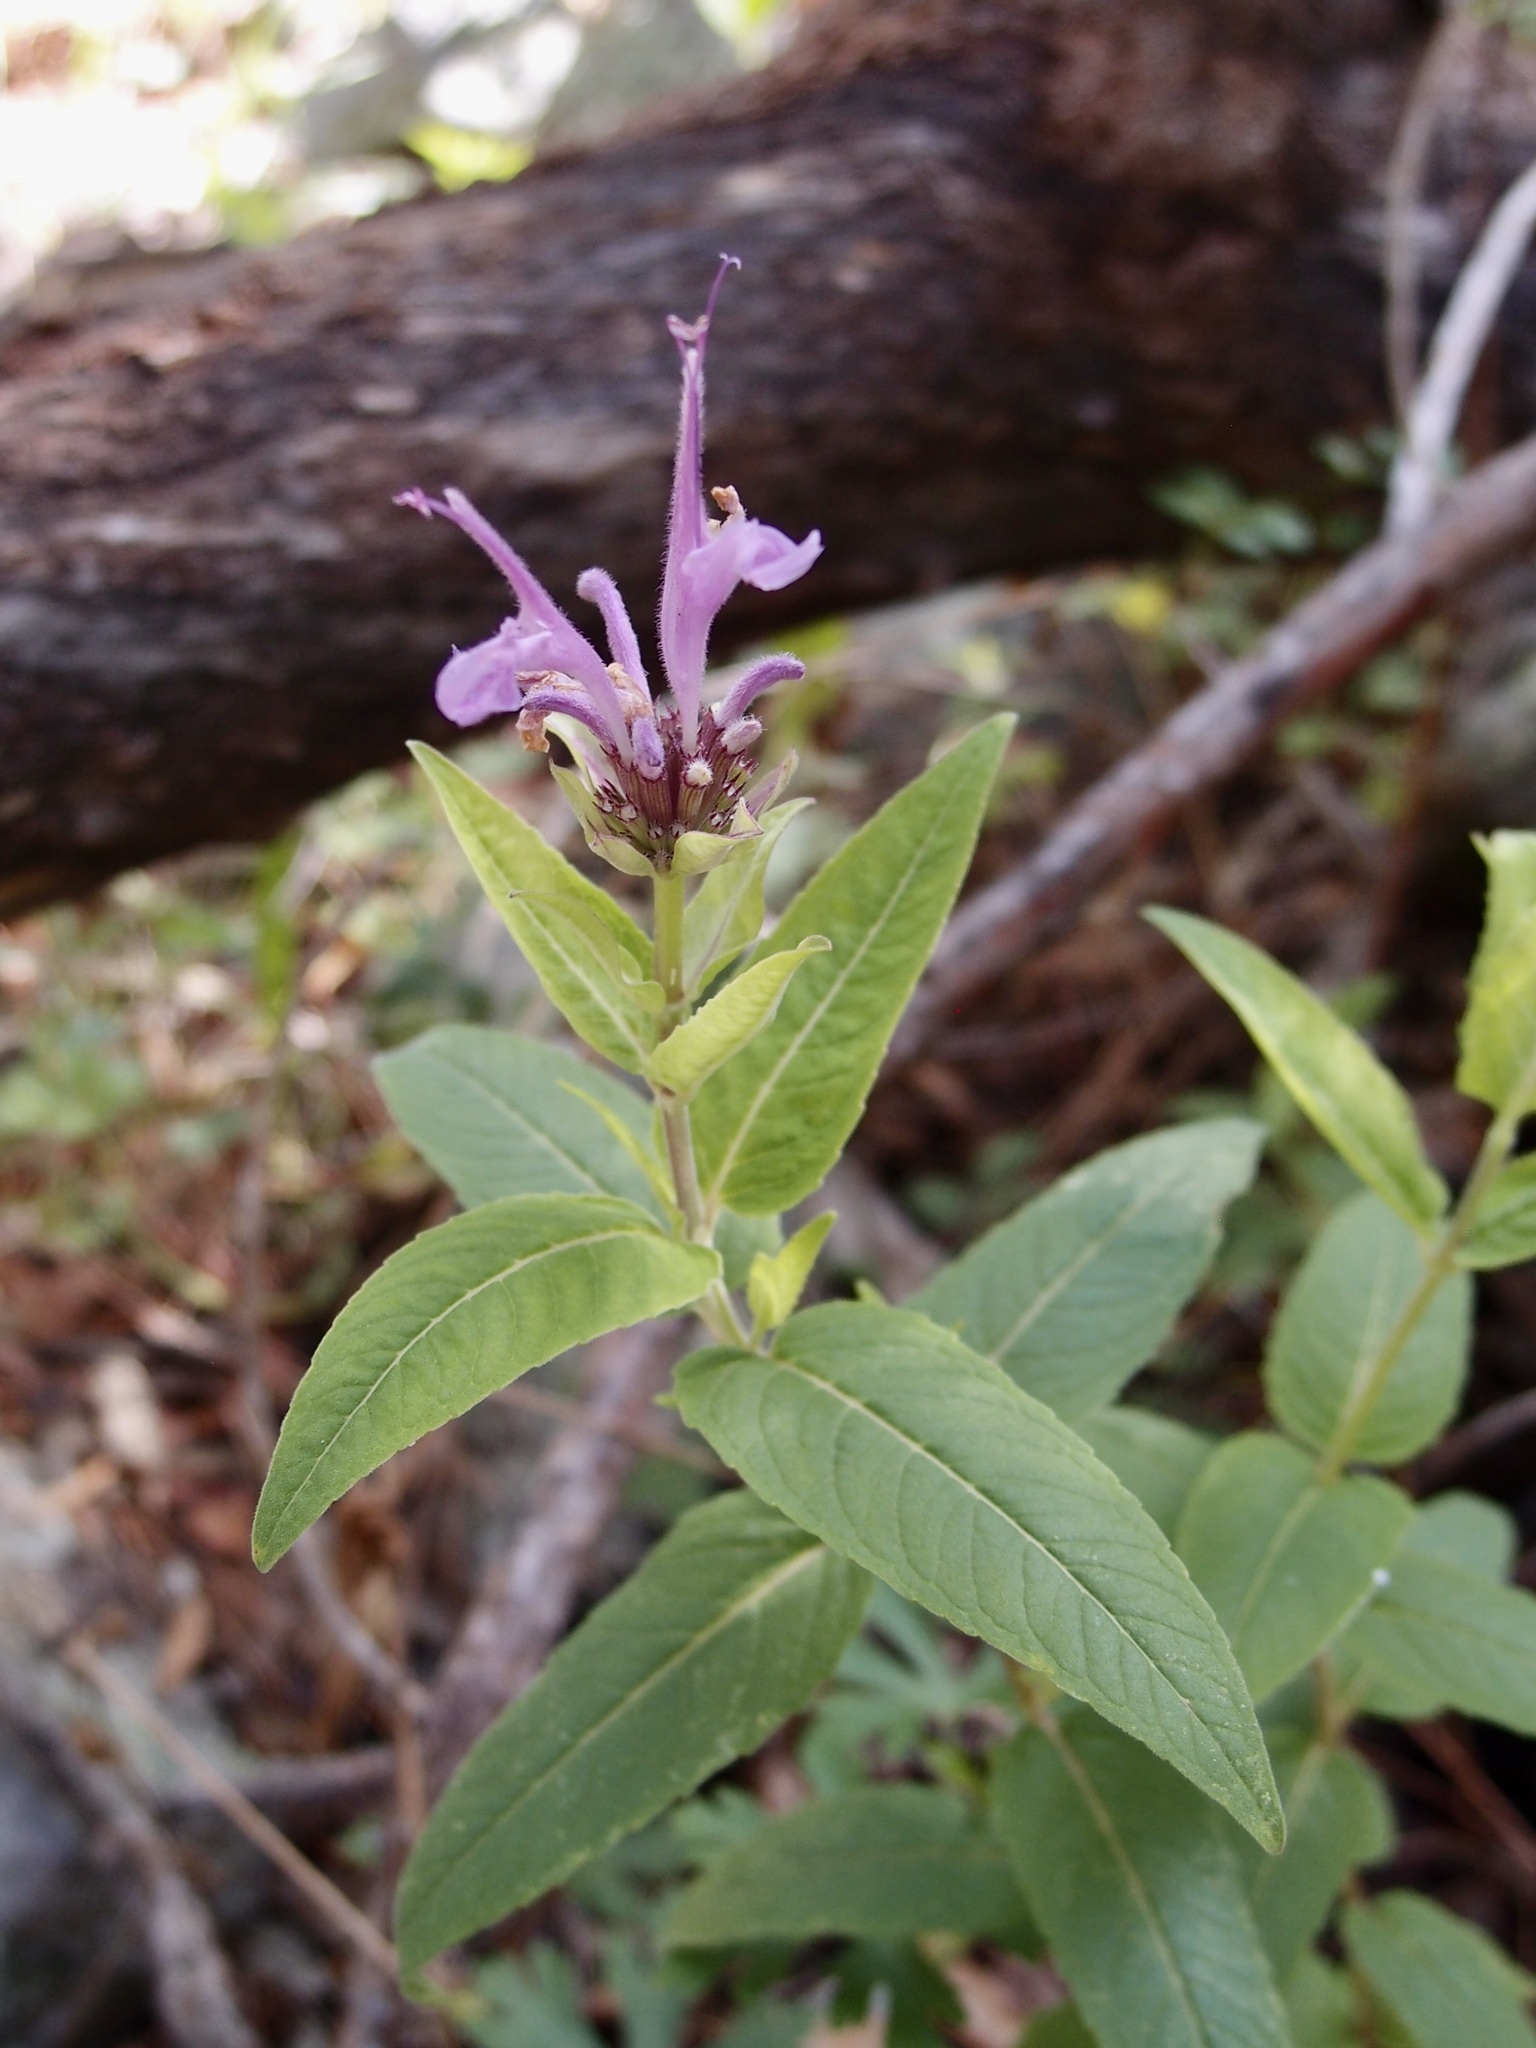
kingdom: Plantae
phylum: Tracheophyta
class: Magnoliopsida
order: Lamiales
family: Lamiaceae
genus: Monarda
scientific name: Monarda fistulosa
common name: Purple beebalm
